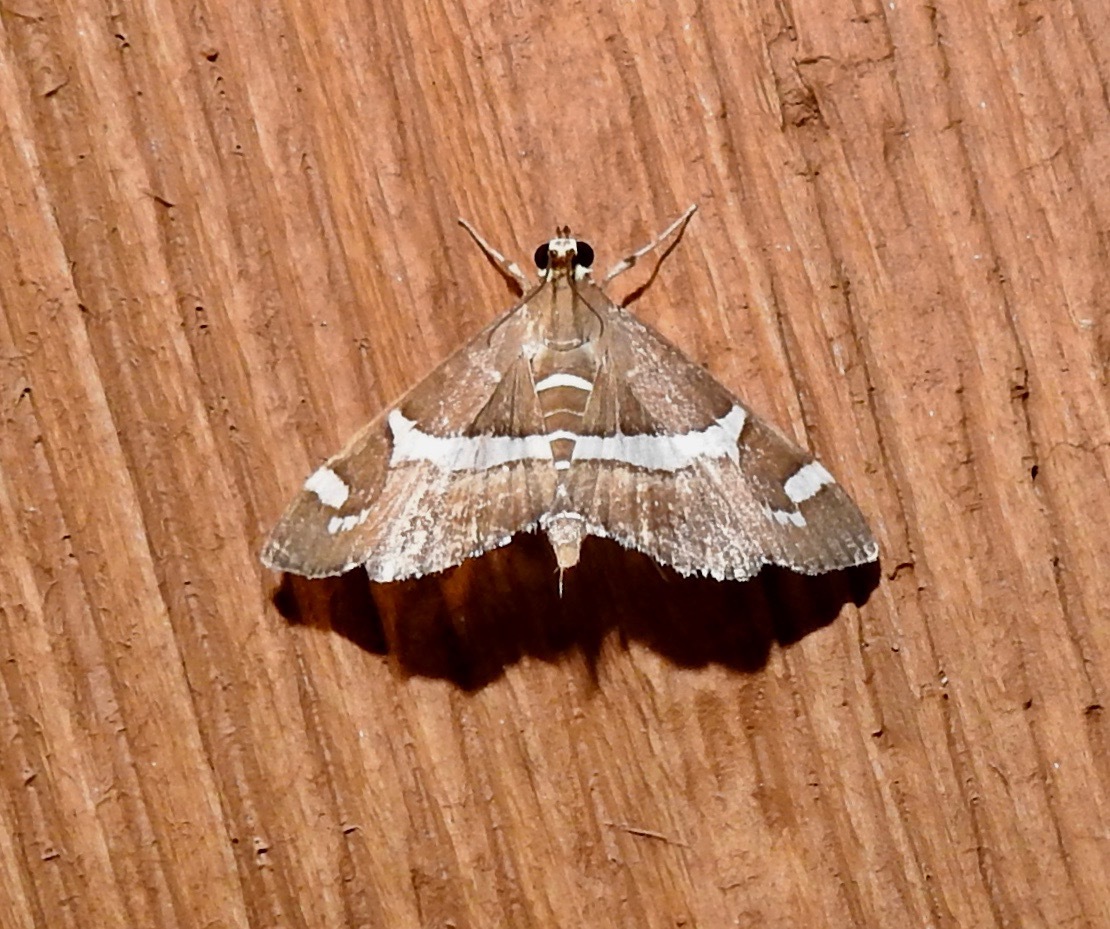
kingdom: Animalia
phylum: Arthropoda
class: Insecta
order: Lepidoptera
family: Crambidae
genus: Spoladea
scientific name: Spoladea recurvalis
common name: Beet webworm moth
